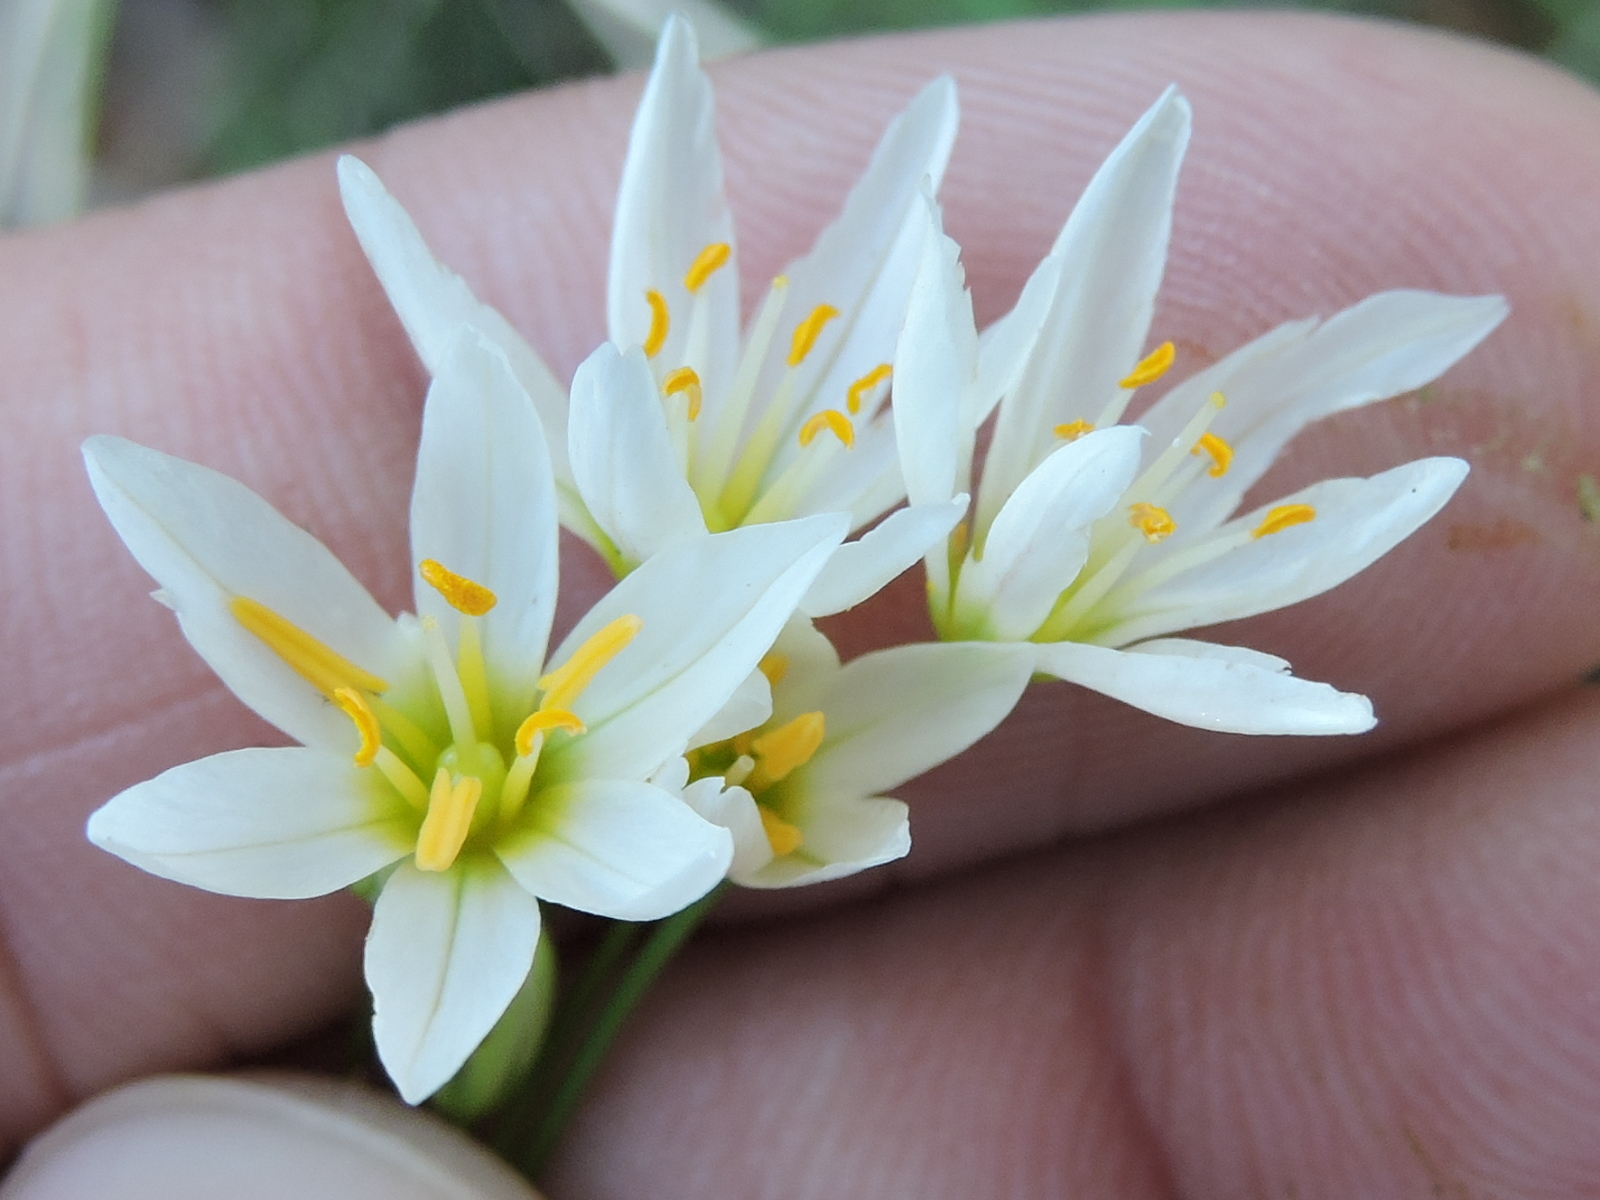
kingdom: Plantae
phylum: Tracheophyta
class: Liliopsida
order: Asparagales
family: Amaryllidaceae
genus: Nothoscordum
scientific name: Nothoscordum bivalve
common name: Crow-poison
